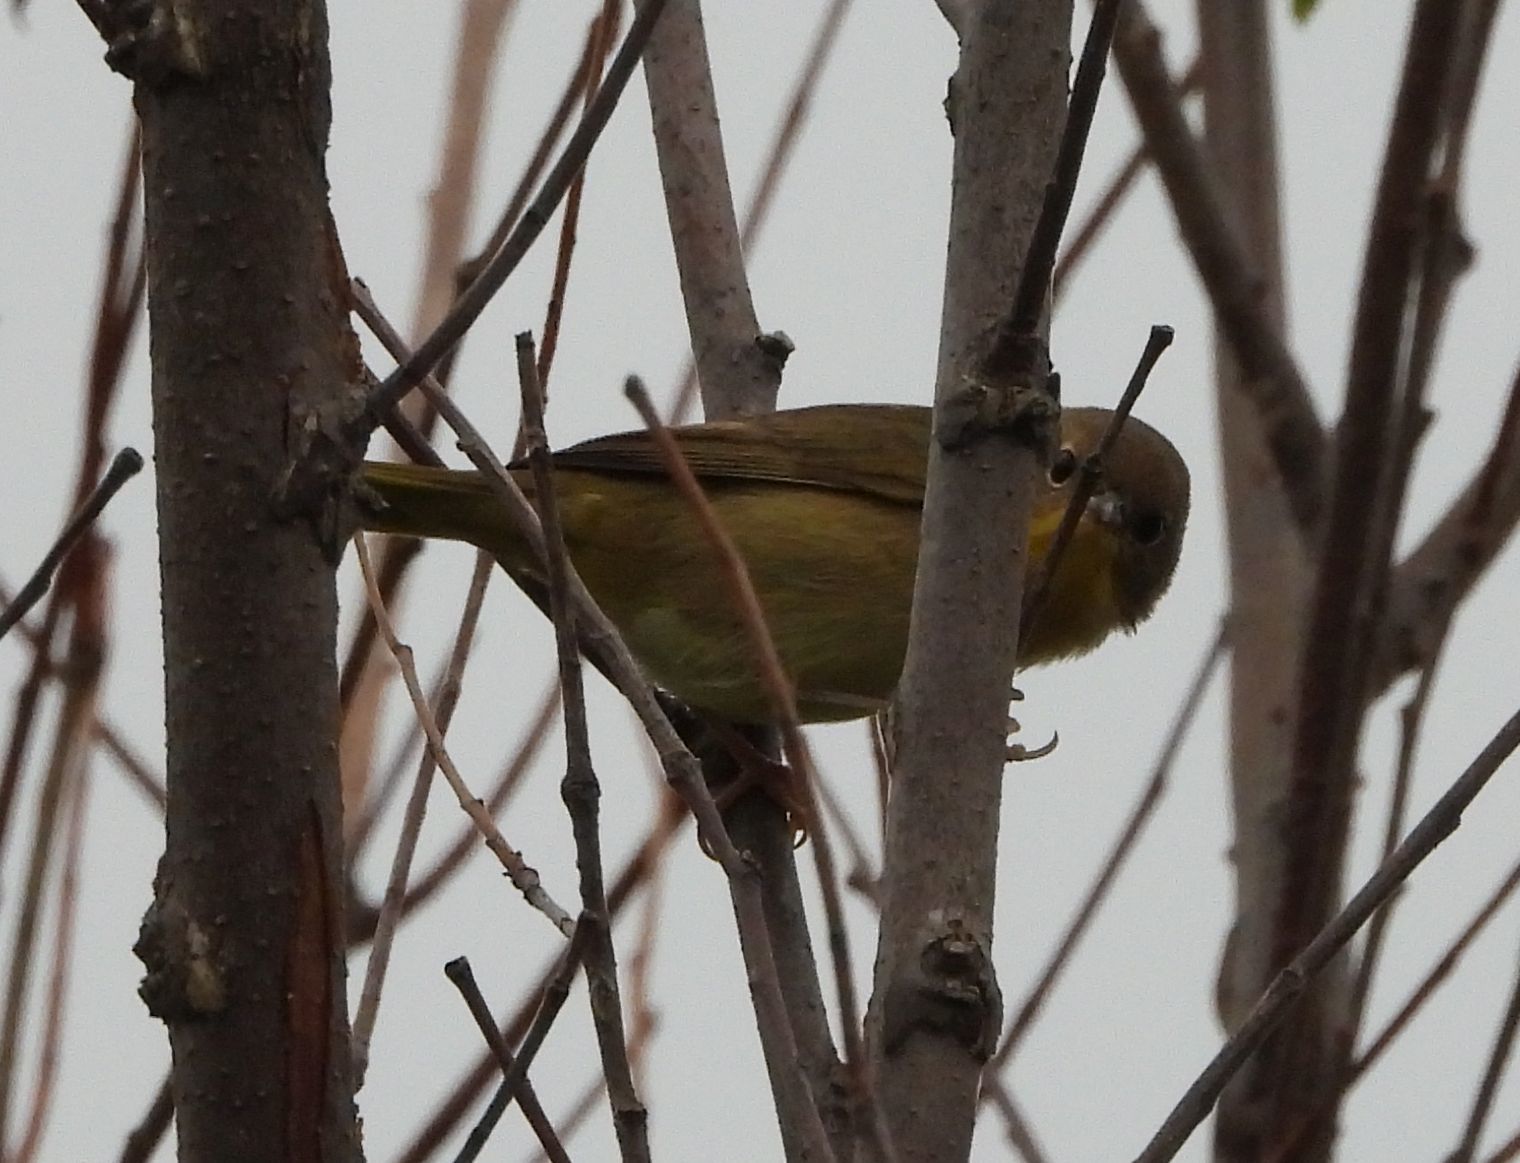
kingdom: Animalia
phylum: Chordata
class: Aves
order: Passeriformes
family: Parulidae
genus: Geothlypis
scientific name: Geothlypis trichas
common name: Common yellowthroat
